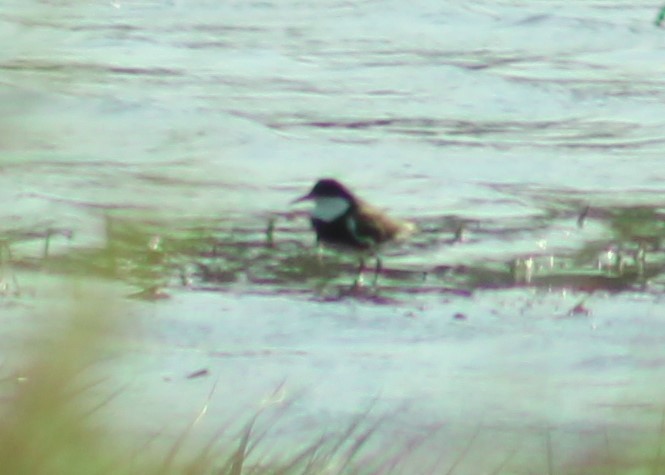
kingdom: Animalia
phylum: Chordata
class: Aves
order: Charadriiformes
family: Charadriidae
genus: Erythrogonys
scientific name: Erythrogonys cinctus
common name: Red-kneed dotterel
